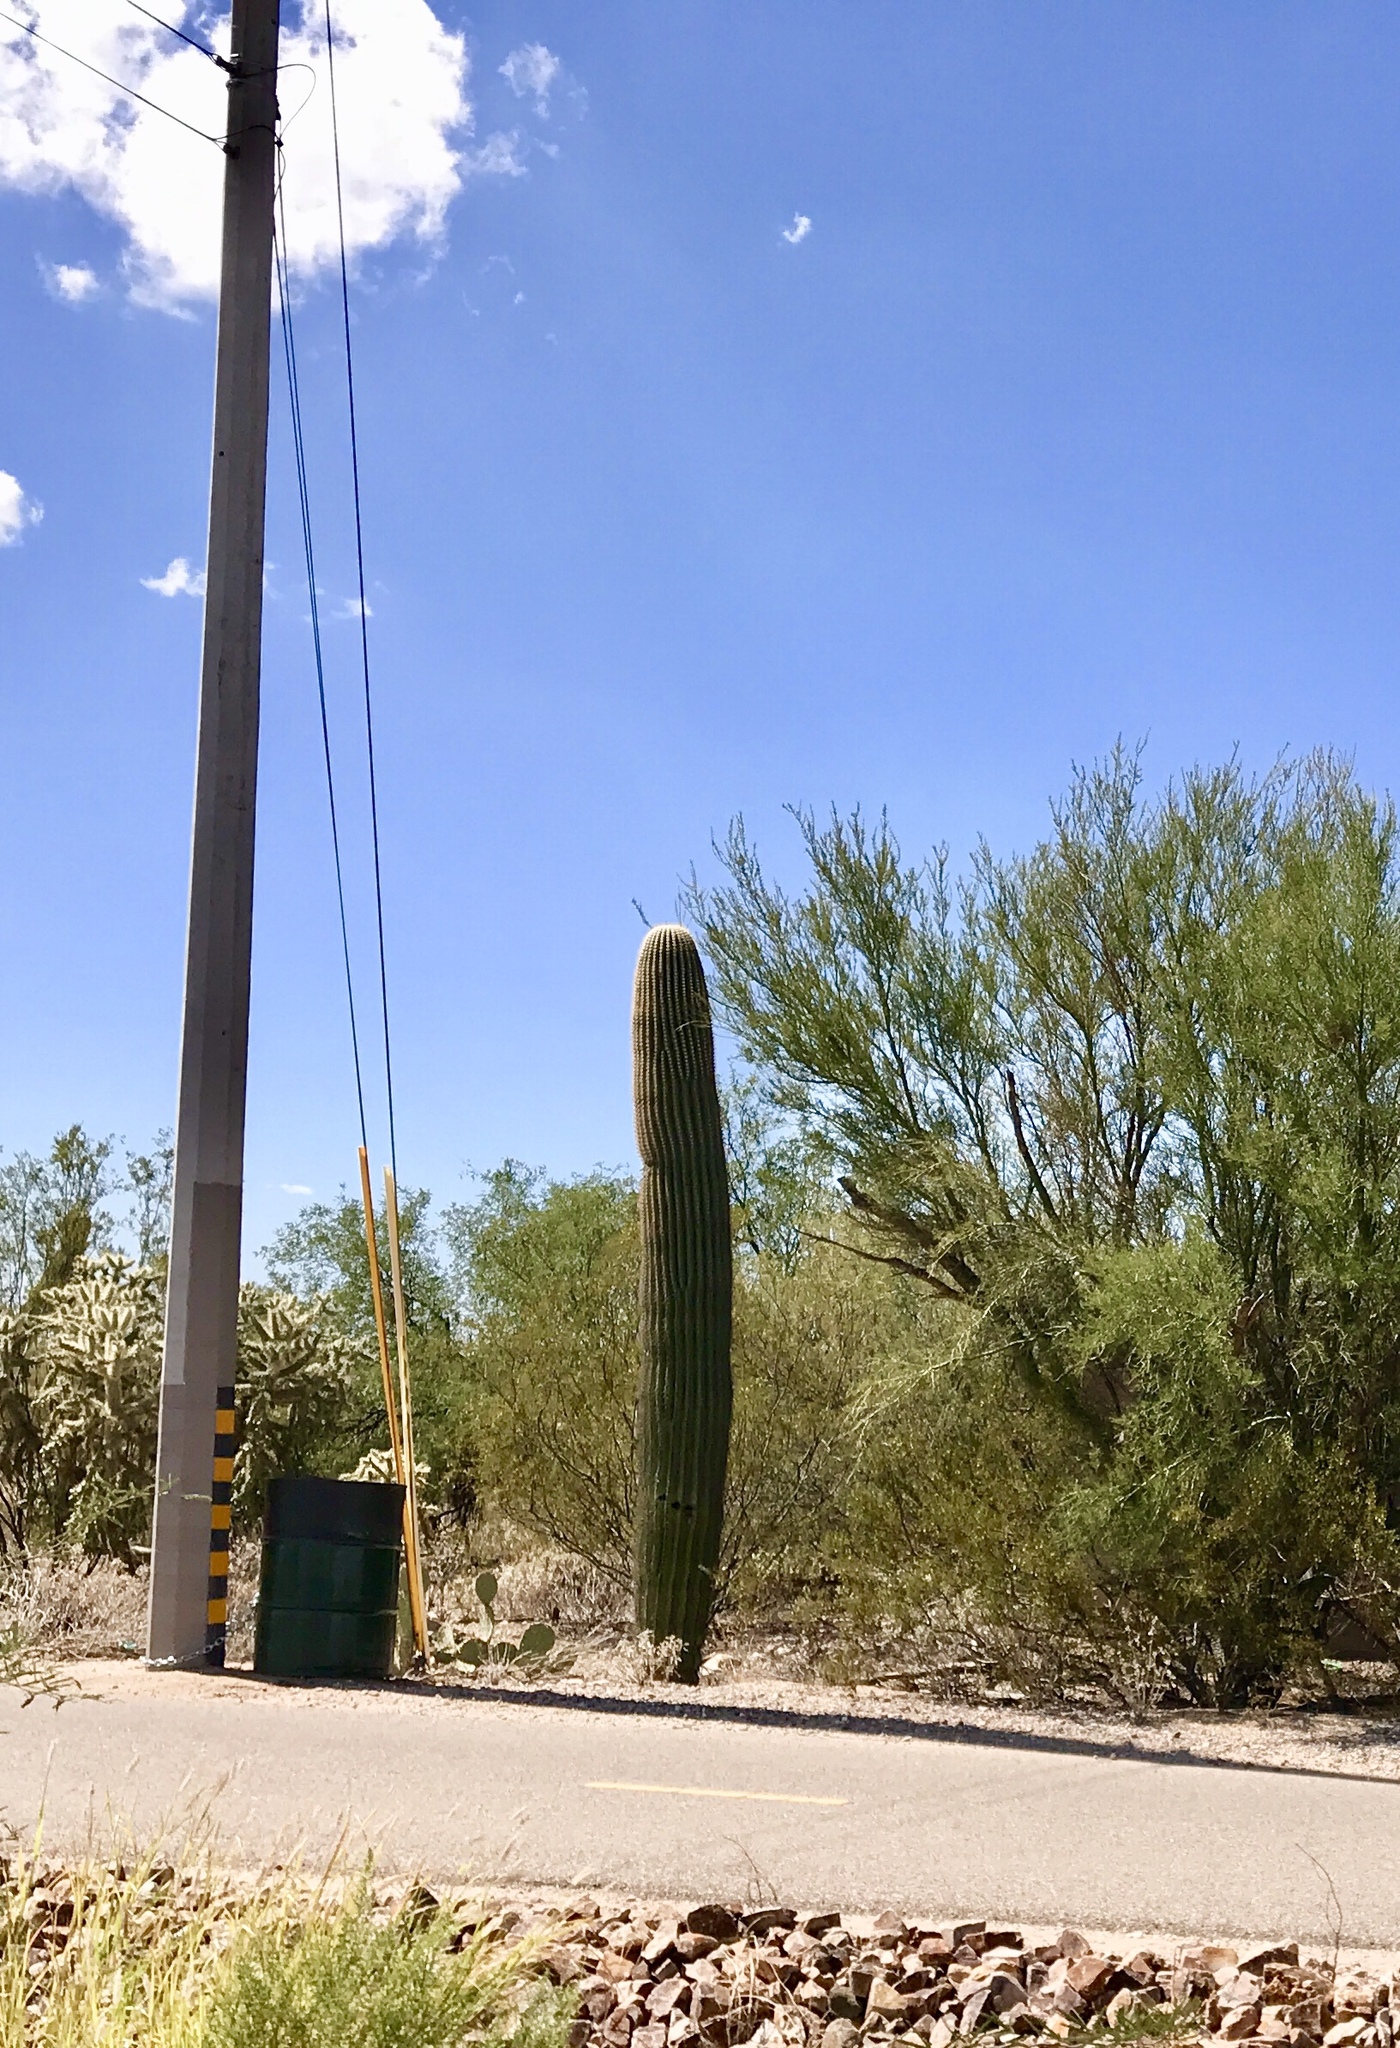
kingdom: Plantae
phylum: Tracheophyta
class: Magnoliopsida
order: Caryophyllales
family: Cactaceae
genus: Carnegiea
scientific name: Carnegiea gigantea
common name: Saguaro
